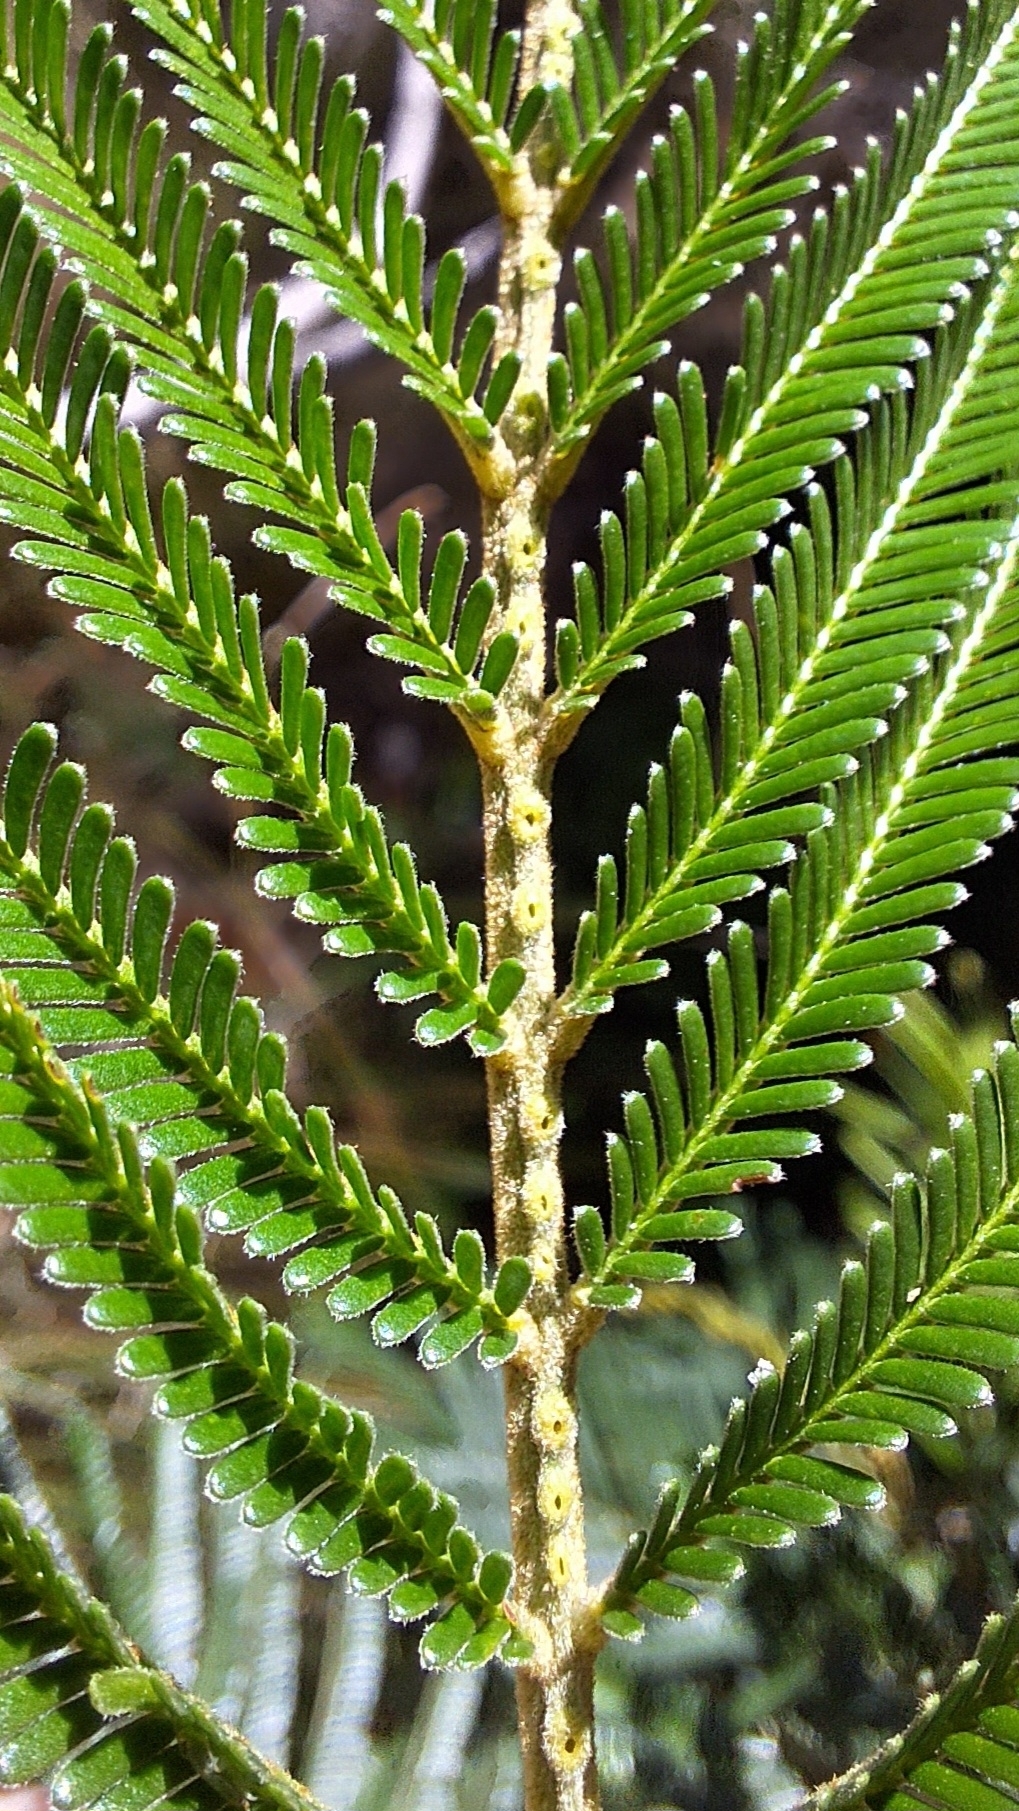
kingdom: Plantae
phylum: Tracheophyta
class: Magnoliopsida
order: Fabales
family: Fabaceae
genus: Acacia
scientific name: Acacia mearnsii
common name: Black wattle
